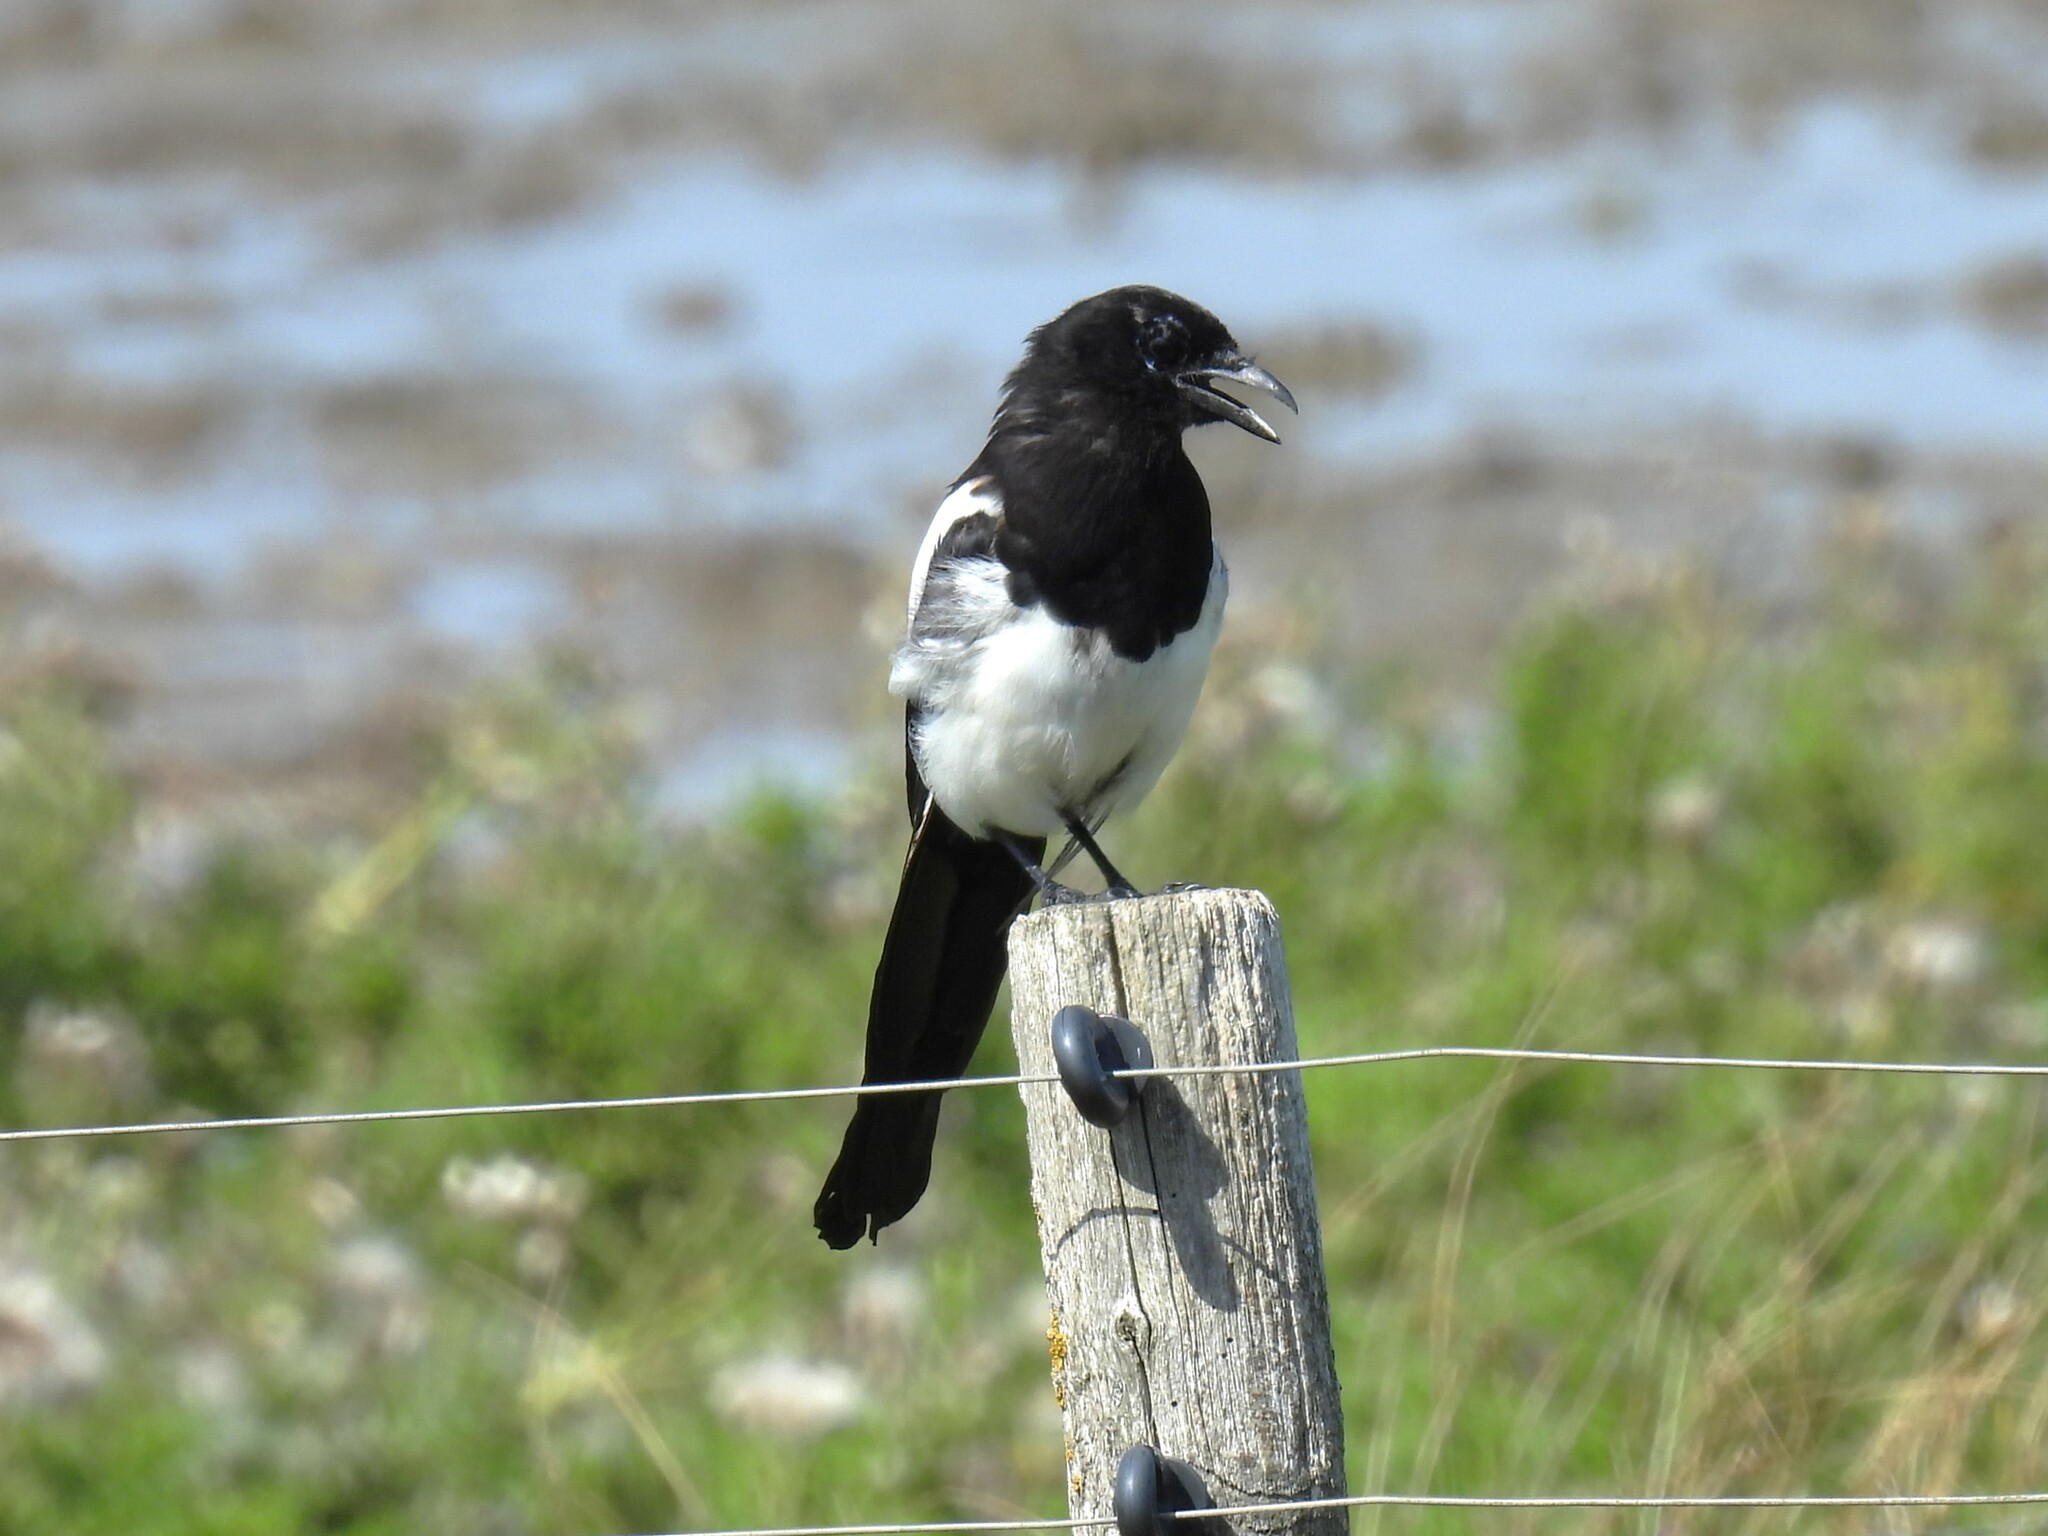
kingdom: Animalia
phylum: Chordata
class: Aves
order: Passeriformes
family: Corvidae
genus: Pica
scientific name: Pica pica
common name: Eurasian magpie
